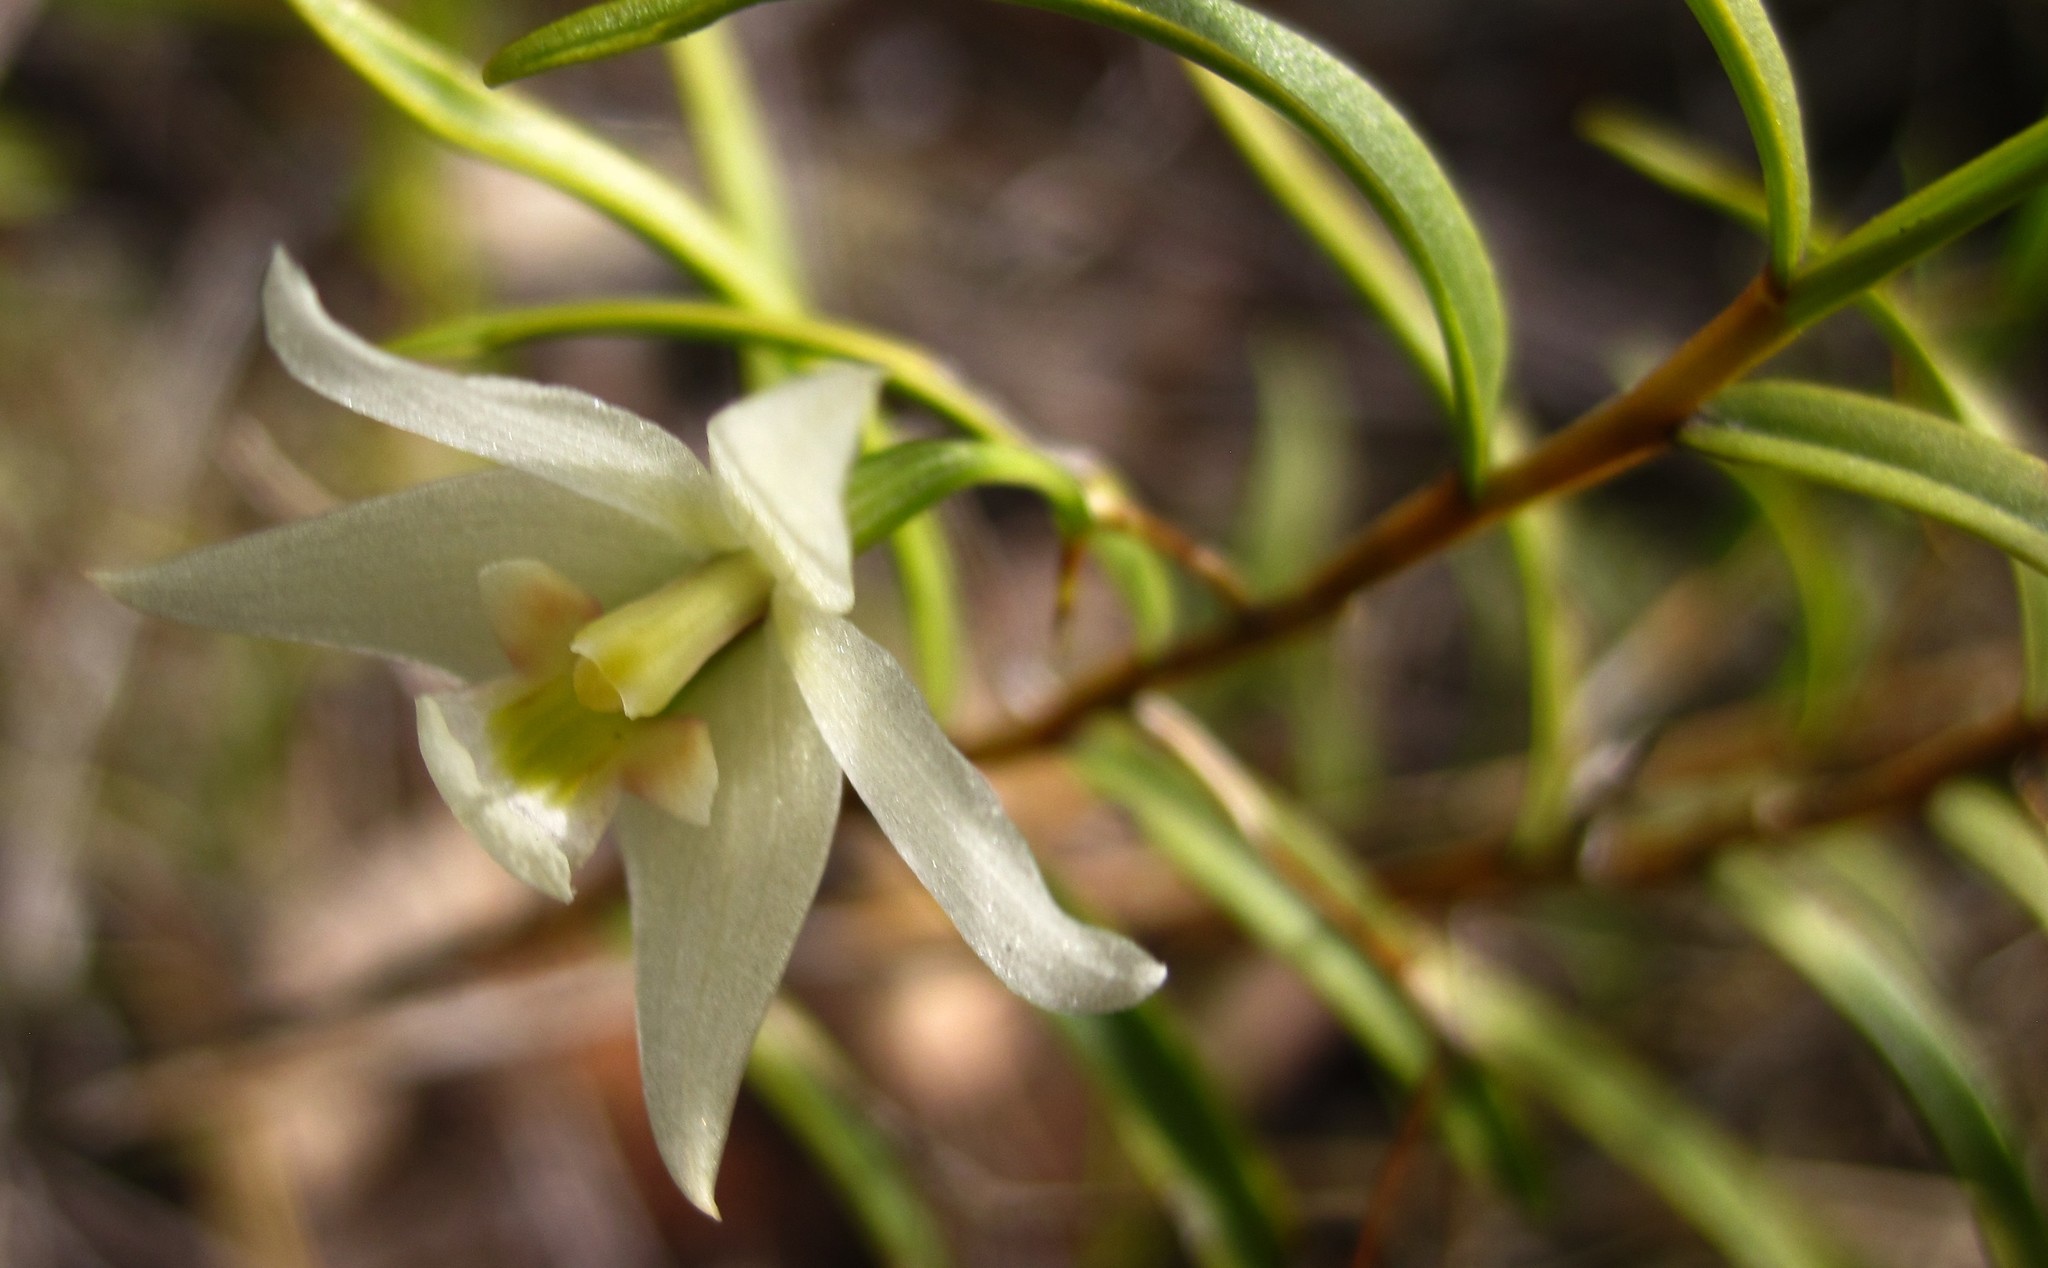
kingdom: Plantae
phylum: Tracheophyta
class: Liliopsida
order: Asparagales
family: Orchidaceae
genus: Dendrobium
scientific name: Dendrobium cunninghamii
